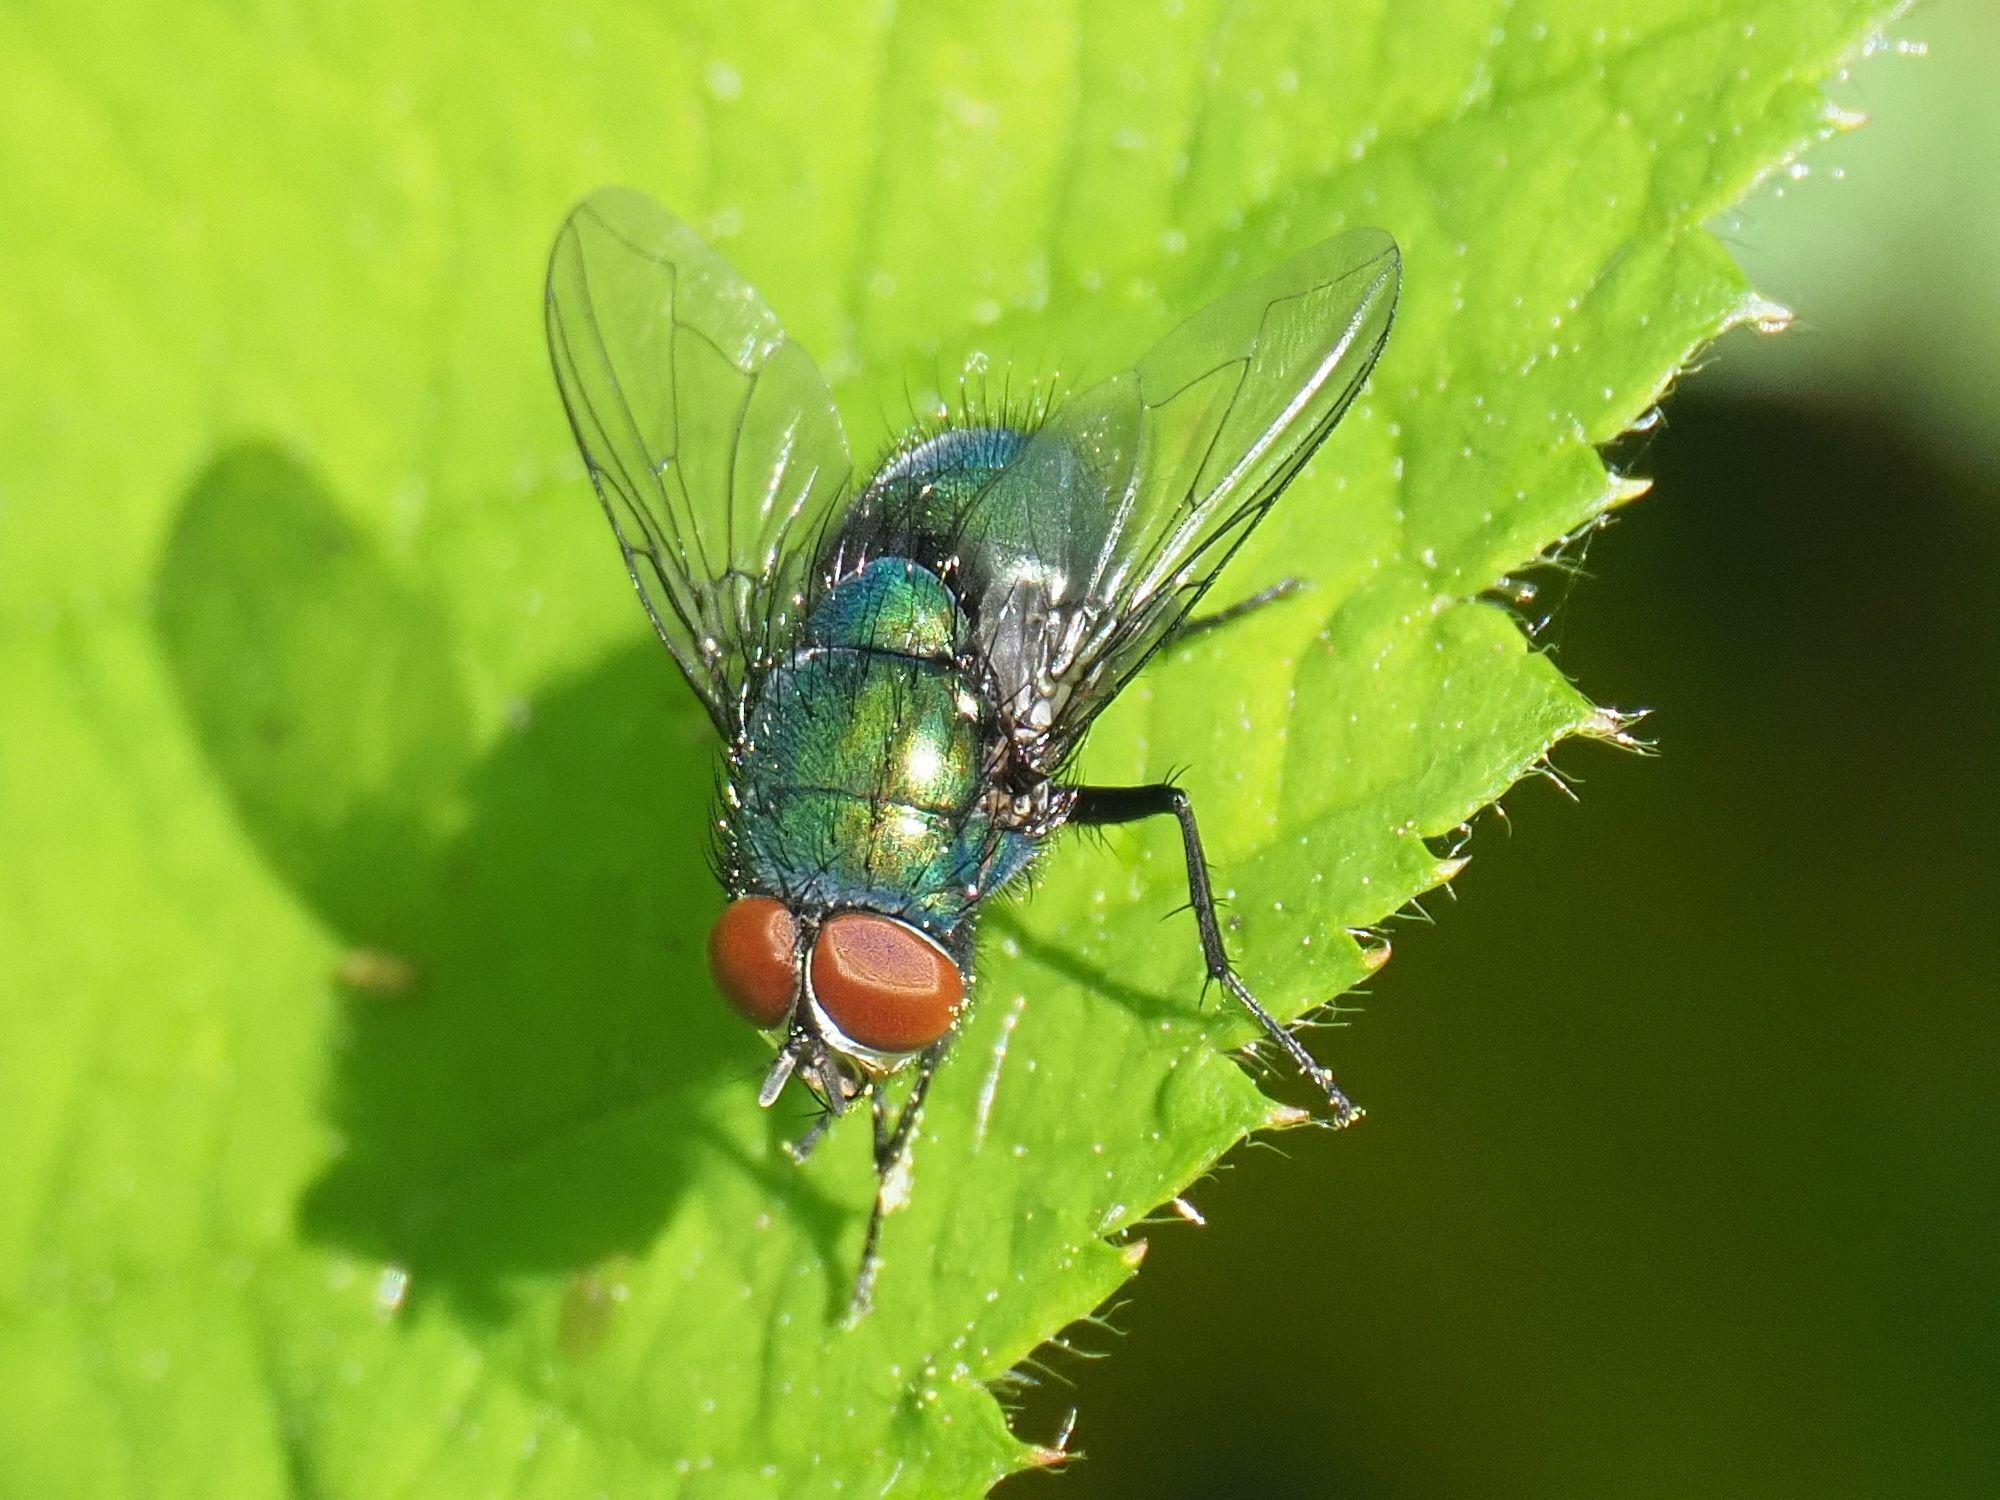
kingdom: Animalia
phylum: Arthropoda
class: Insecta
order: Diptera
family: Calliphoridae
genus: Lucilia
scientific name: Lucilia
